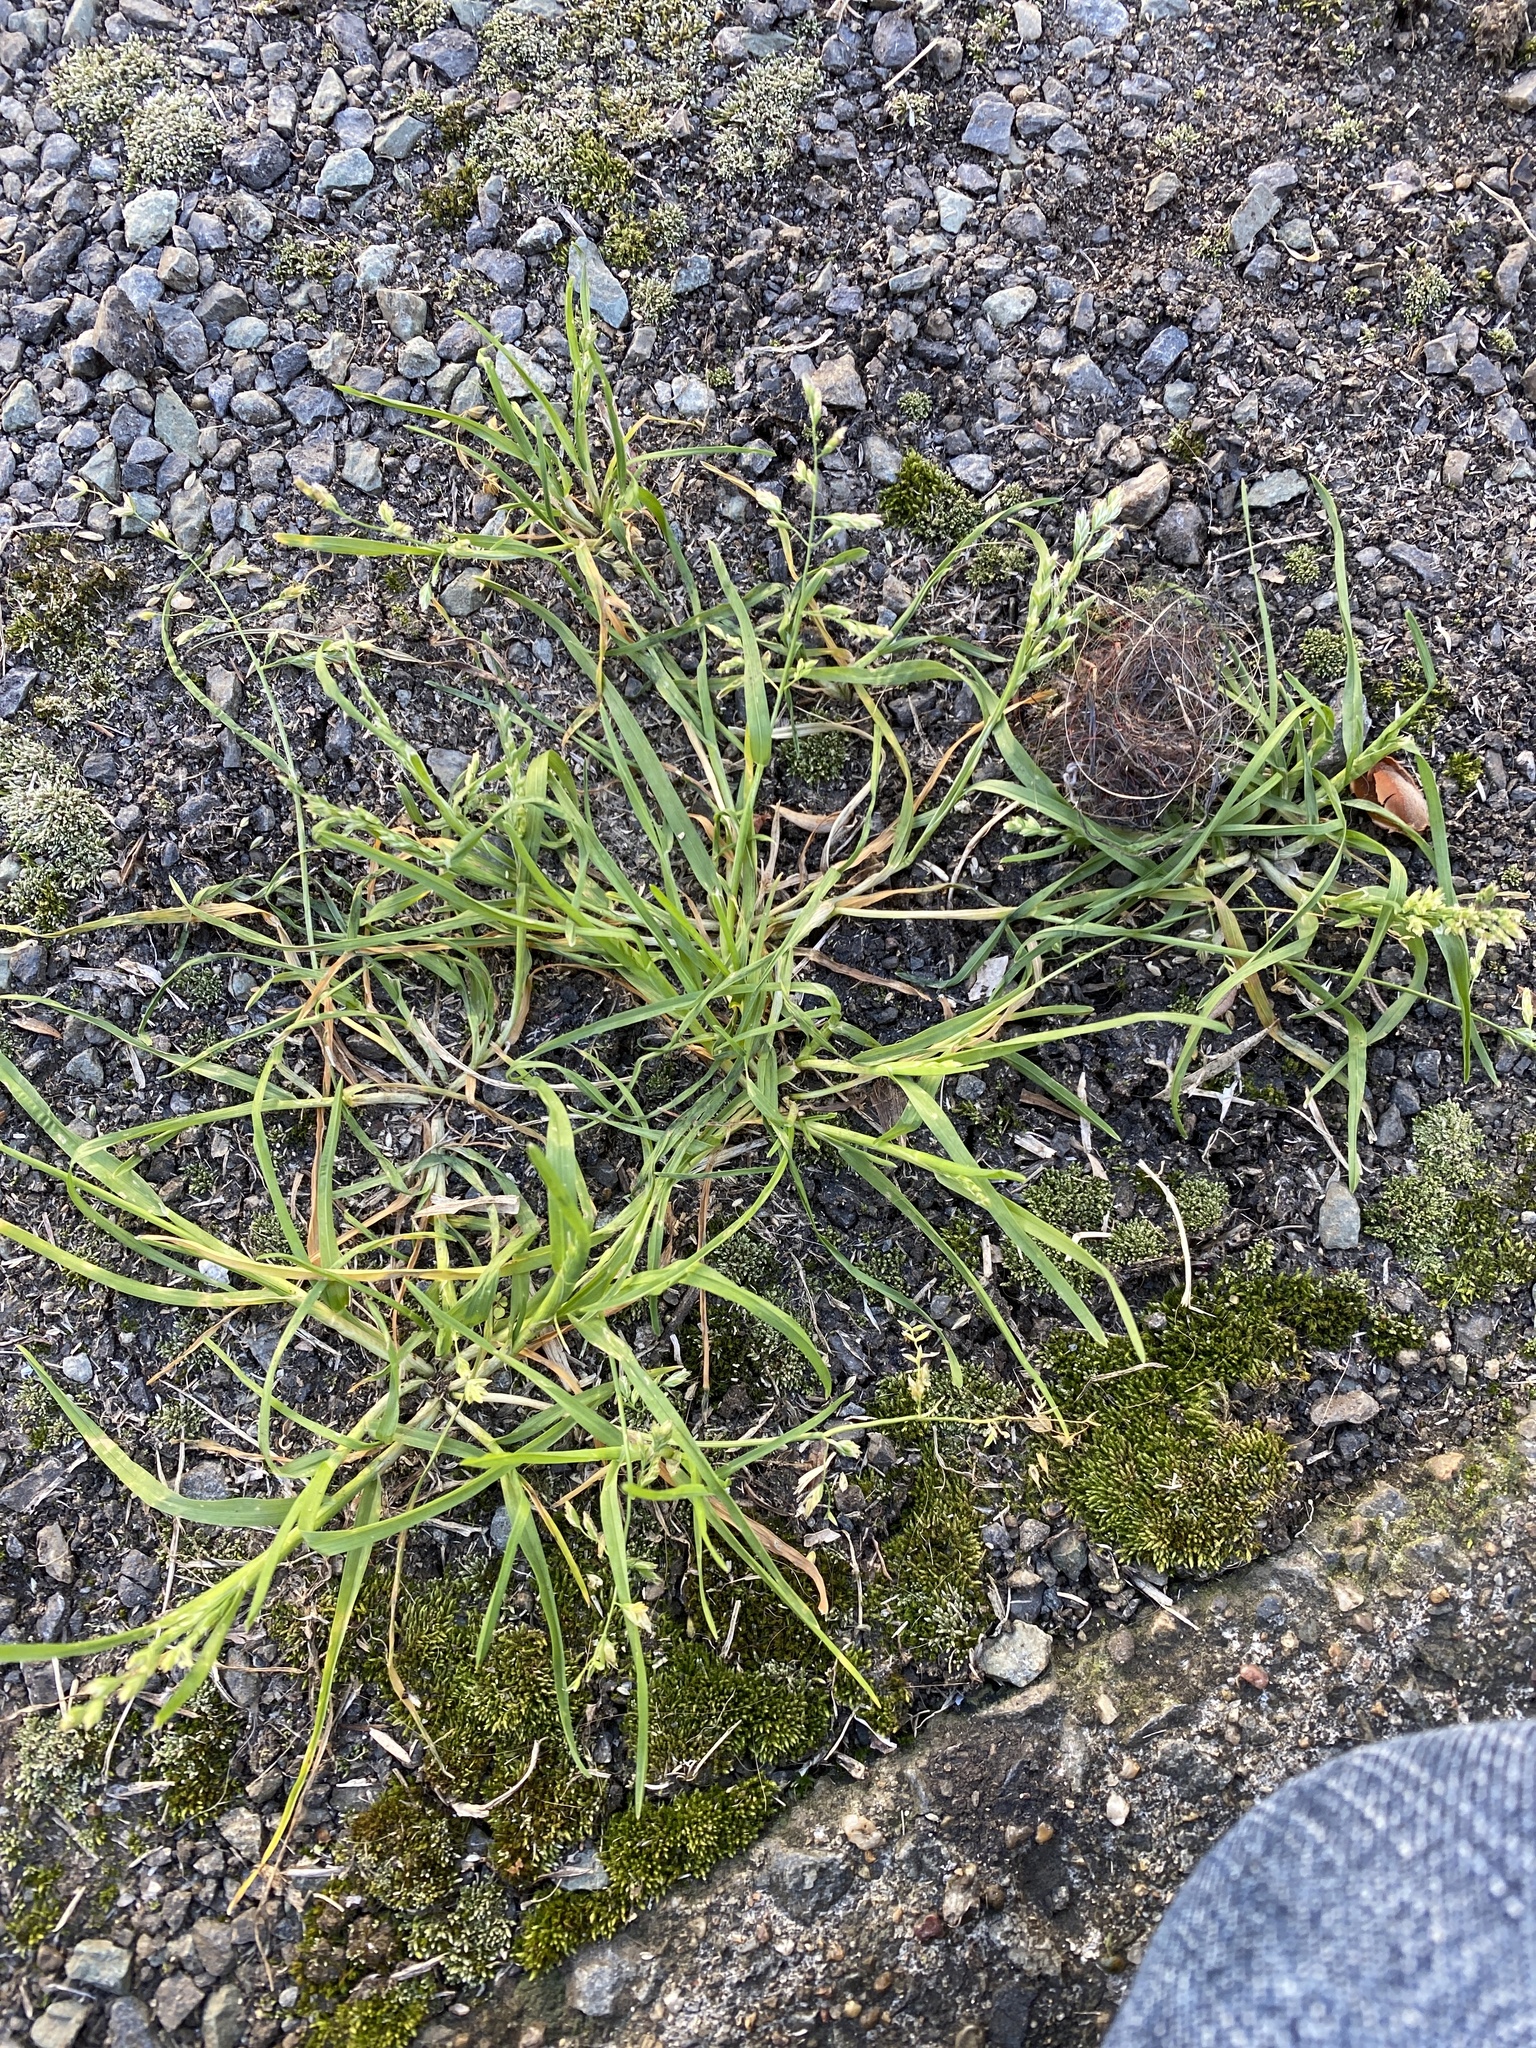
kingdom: Plantae
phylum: Tracheophyta
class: Liliopsida
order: Poales
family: Poaceae
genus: Poa
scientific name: Poa annua
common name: Annual bluegrass
